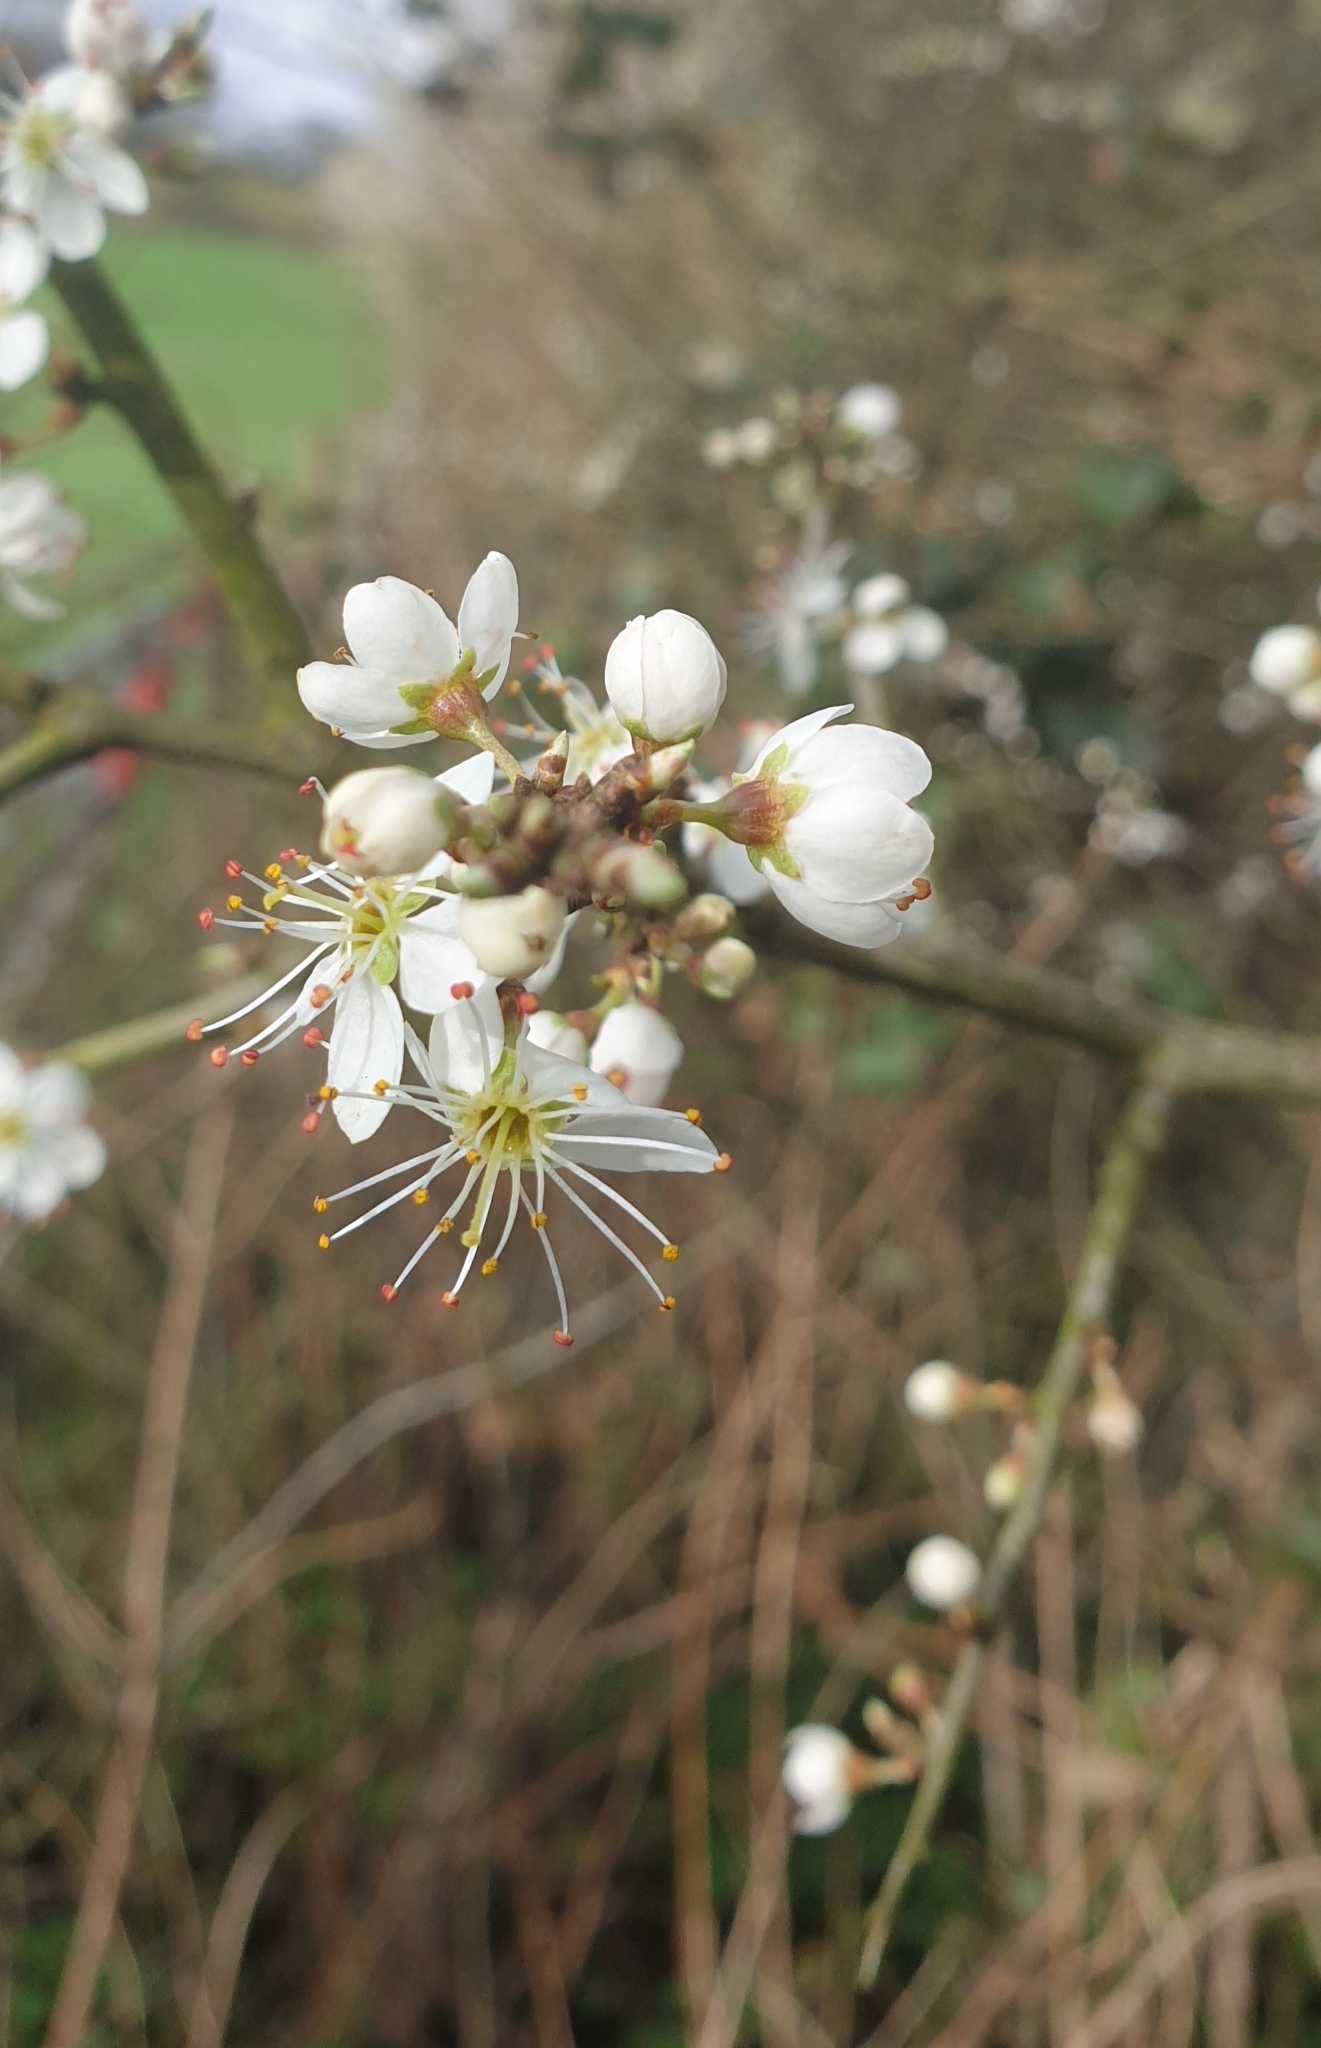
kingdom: Plantae
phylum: Tracheophyta
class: Magnoliopsida
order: Rosales
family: Rosaceae
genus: Prunus
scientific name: Prunus spinosa
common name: Blackthorn
